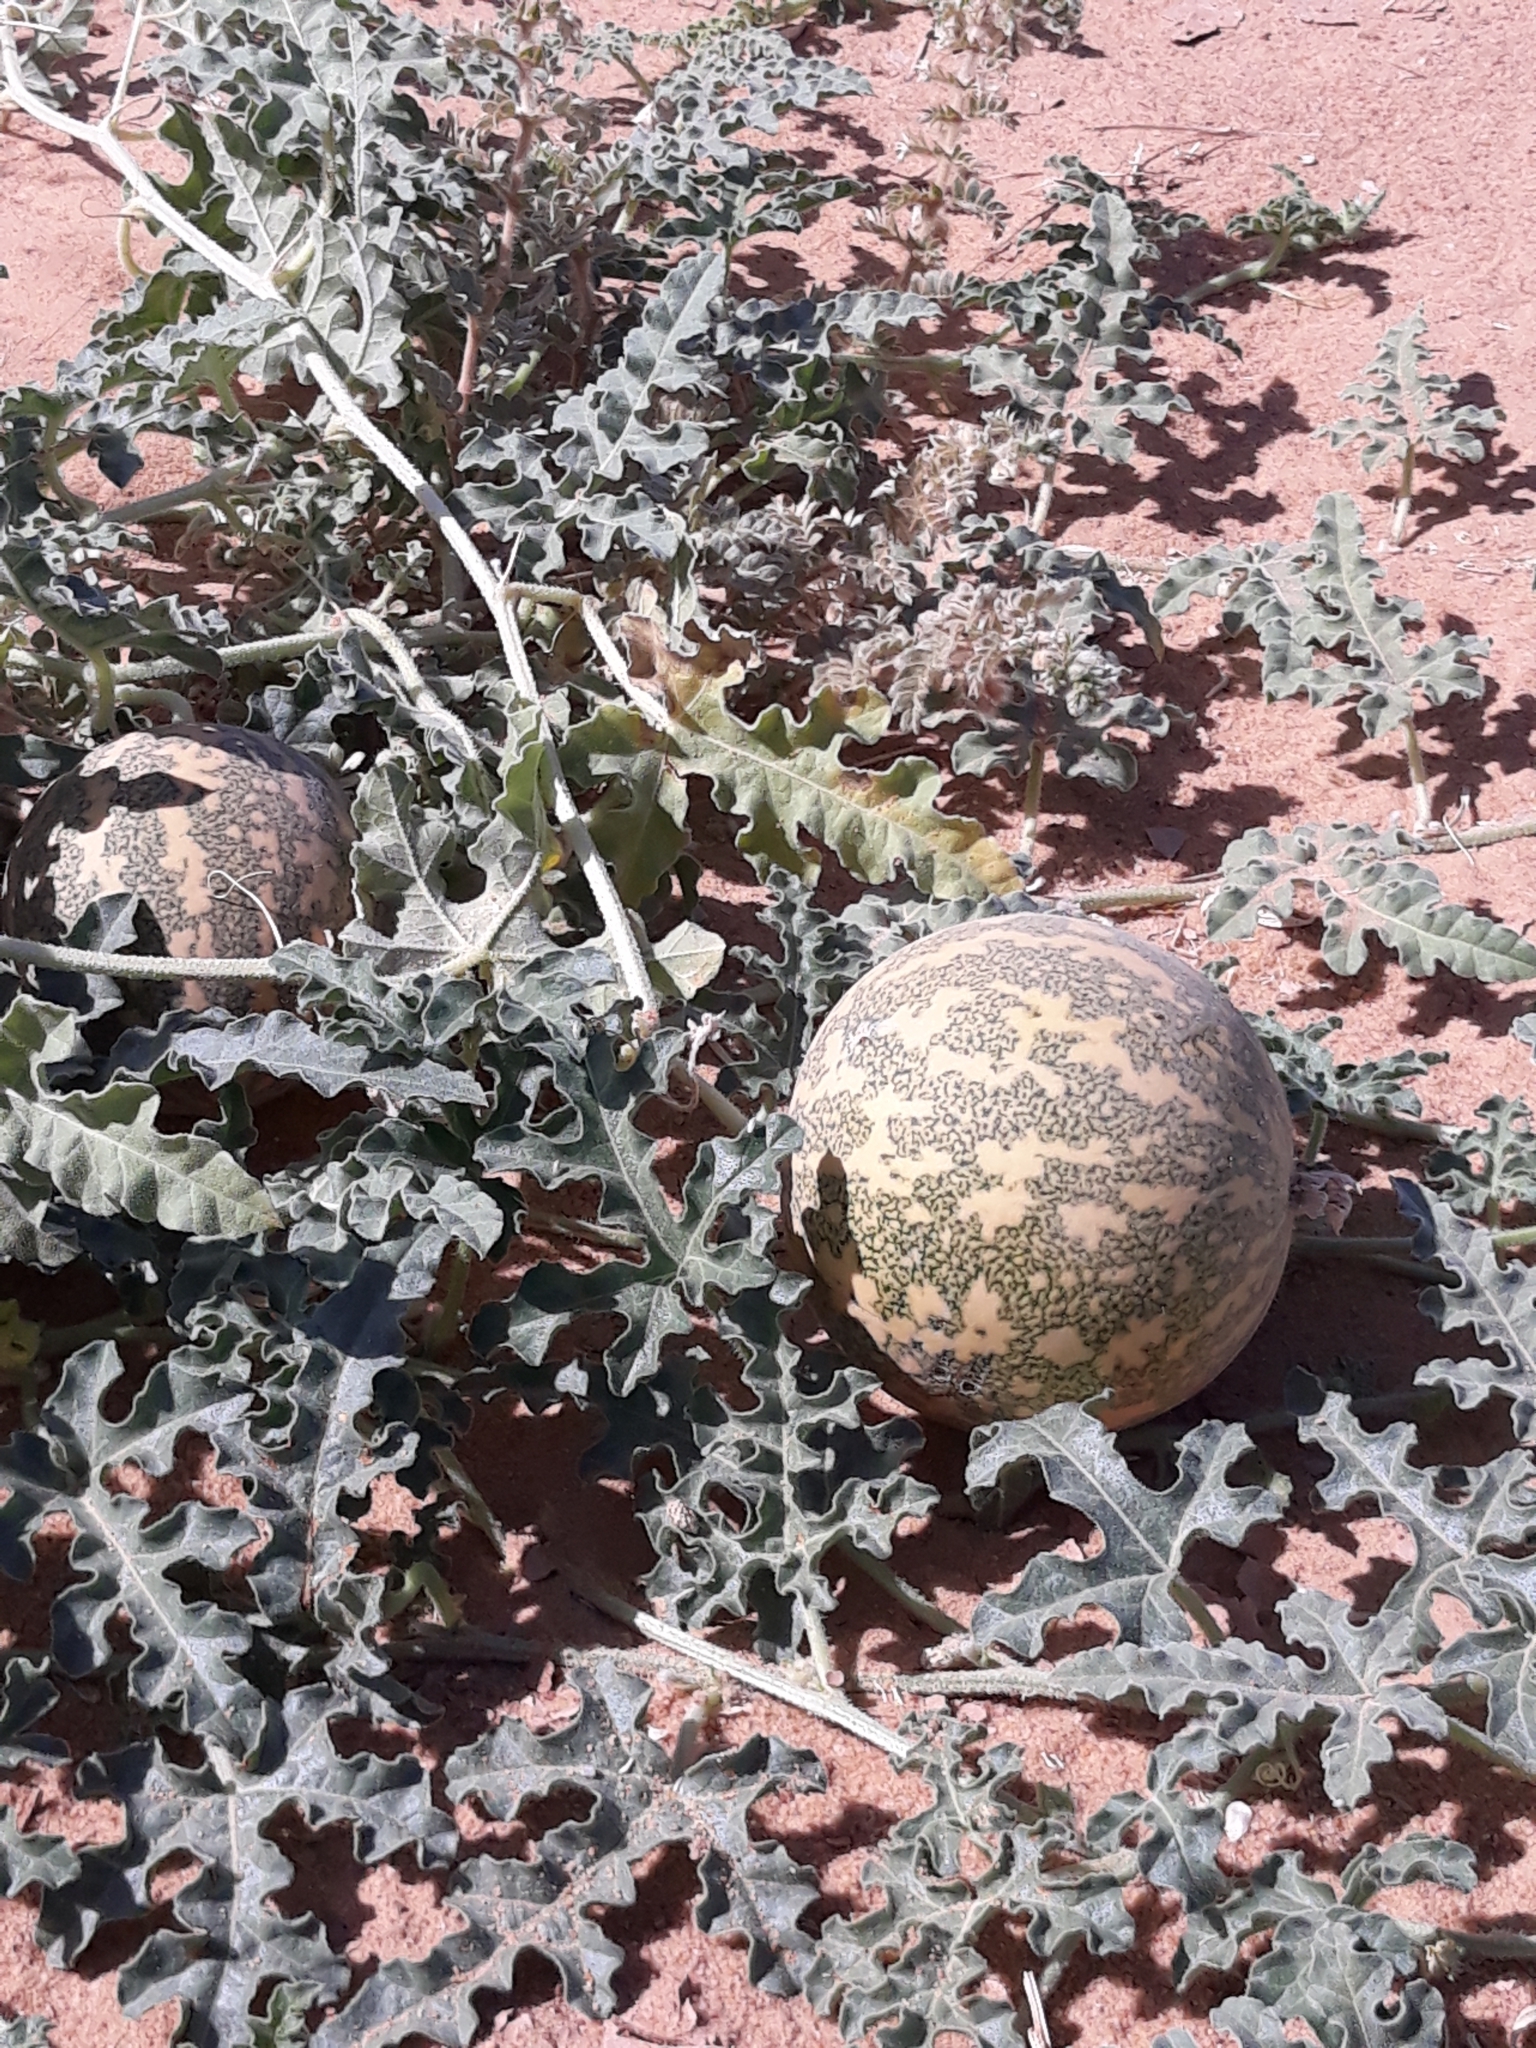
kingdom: Plantae
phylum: Tracheophyta
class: Magnoliopsida
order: Cucurbitales
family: Cucurbitaceae
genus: Citrullus
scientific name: Citrullus colocynthis
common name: Colocynth
